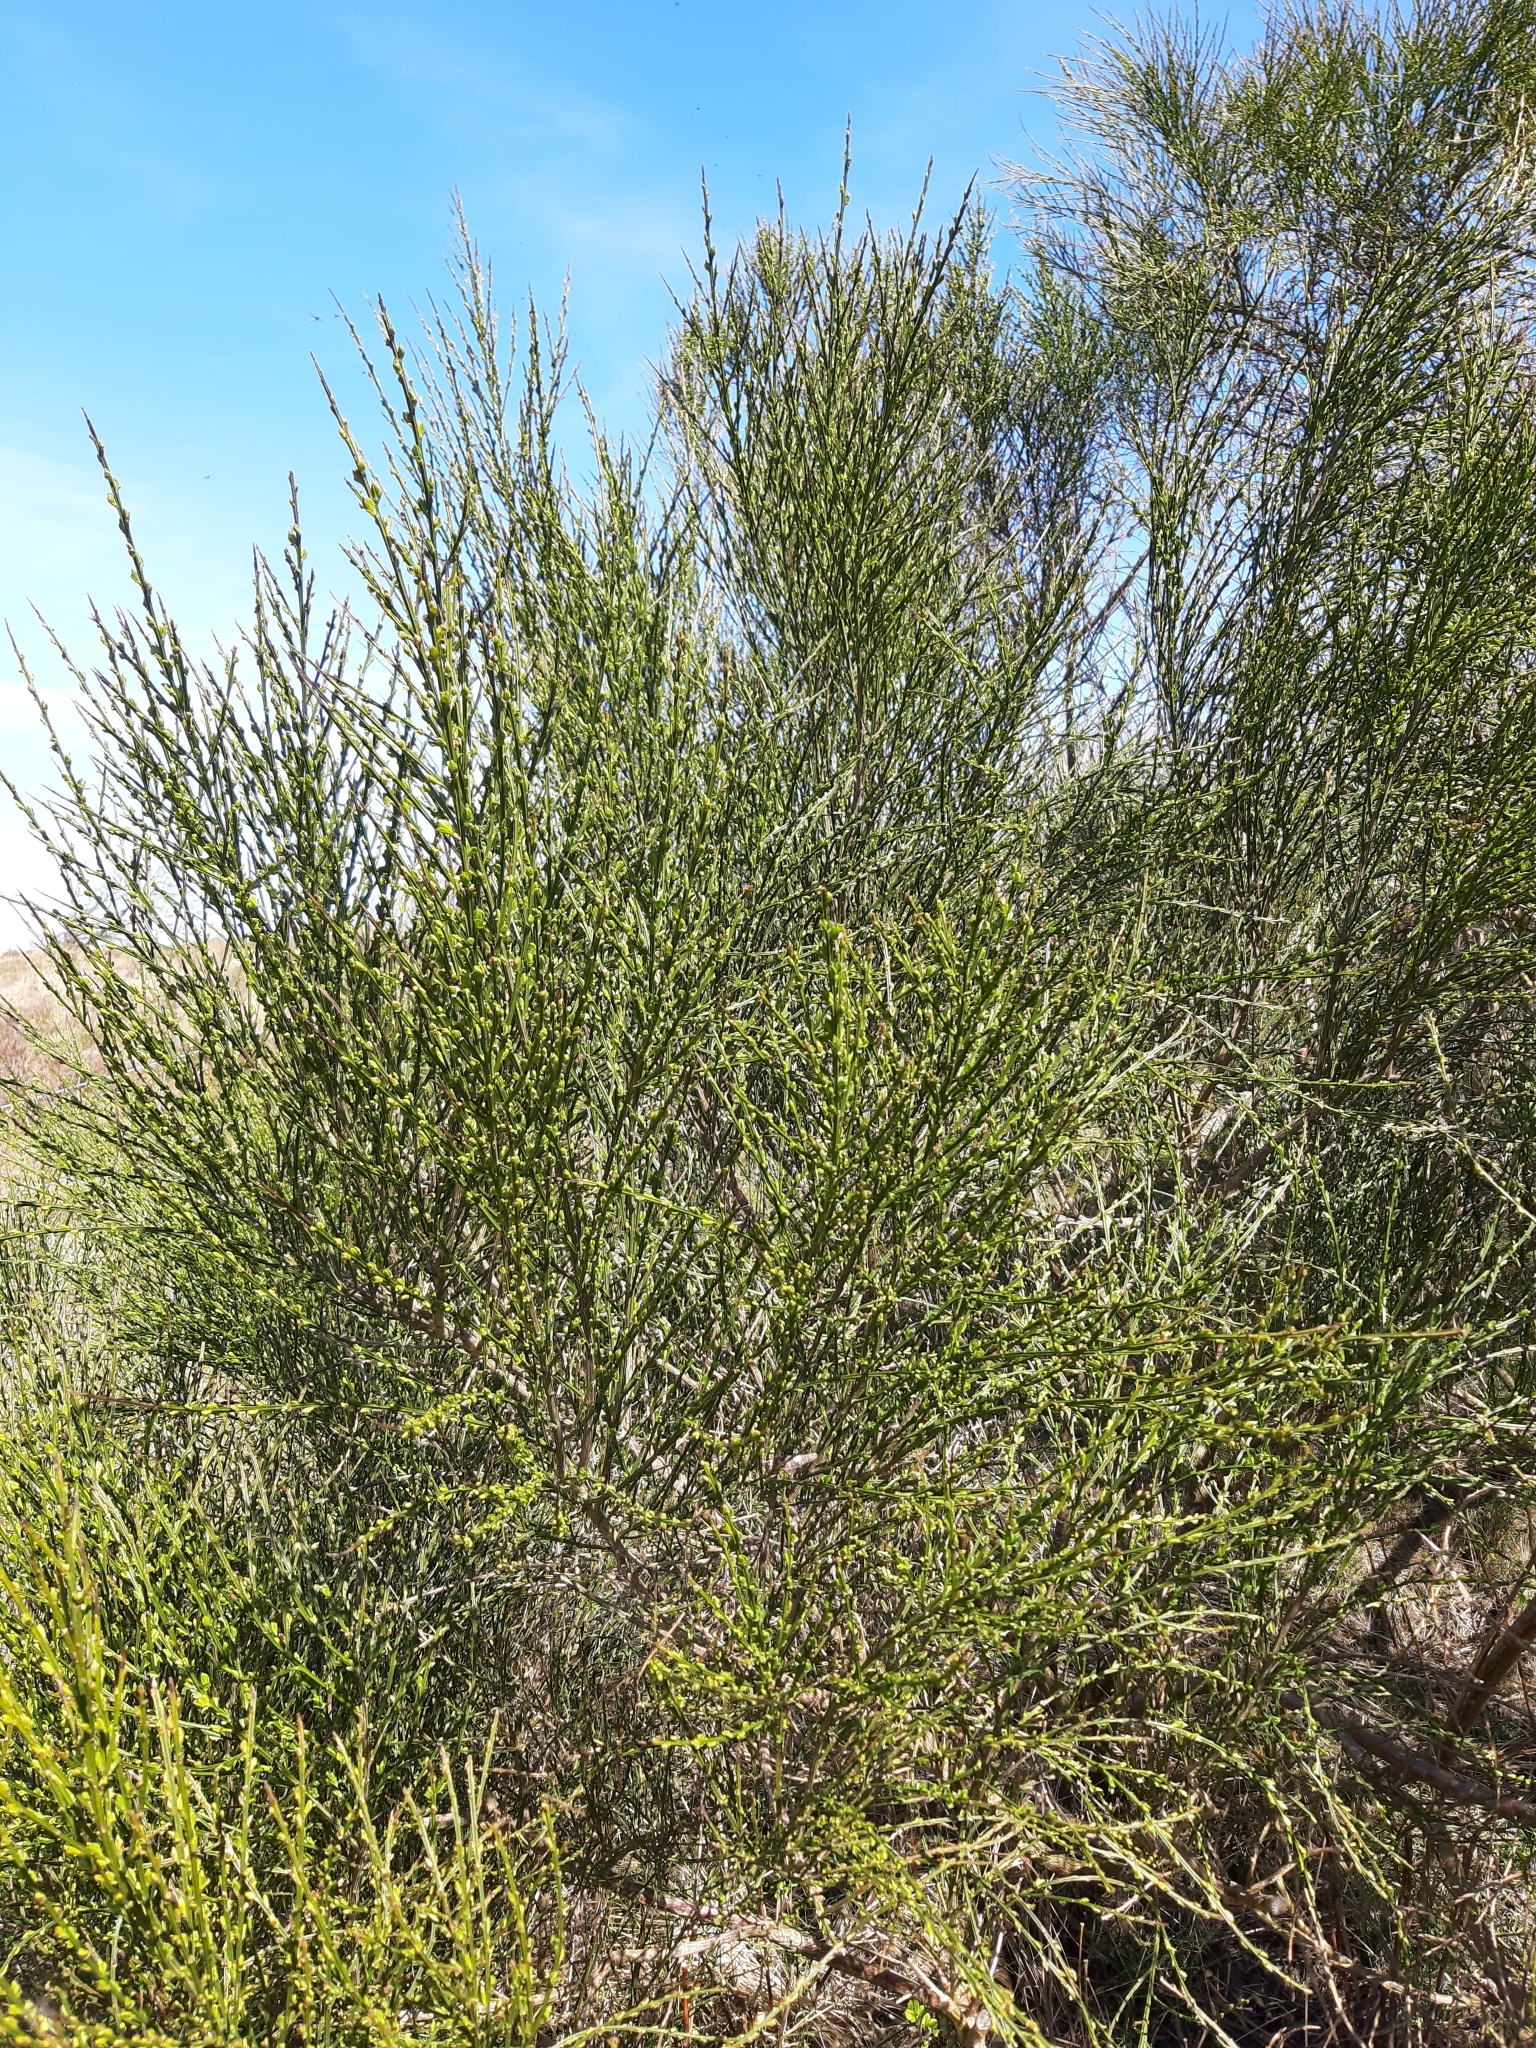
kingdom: Plantae
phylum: Tracheophyta
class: Magnoliopsida
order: Fabales
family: Fabaceae
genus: Cytisus
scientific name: Cytisus scoparius
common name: Scotch broom
